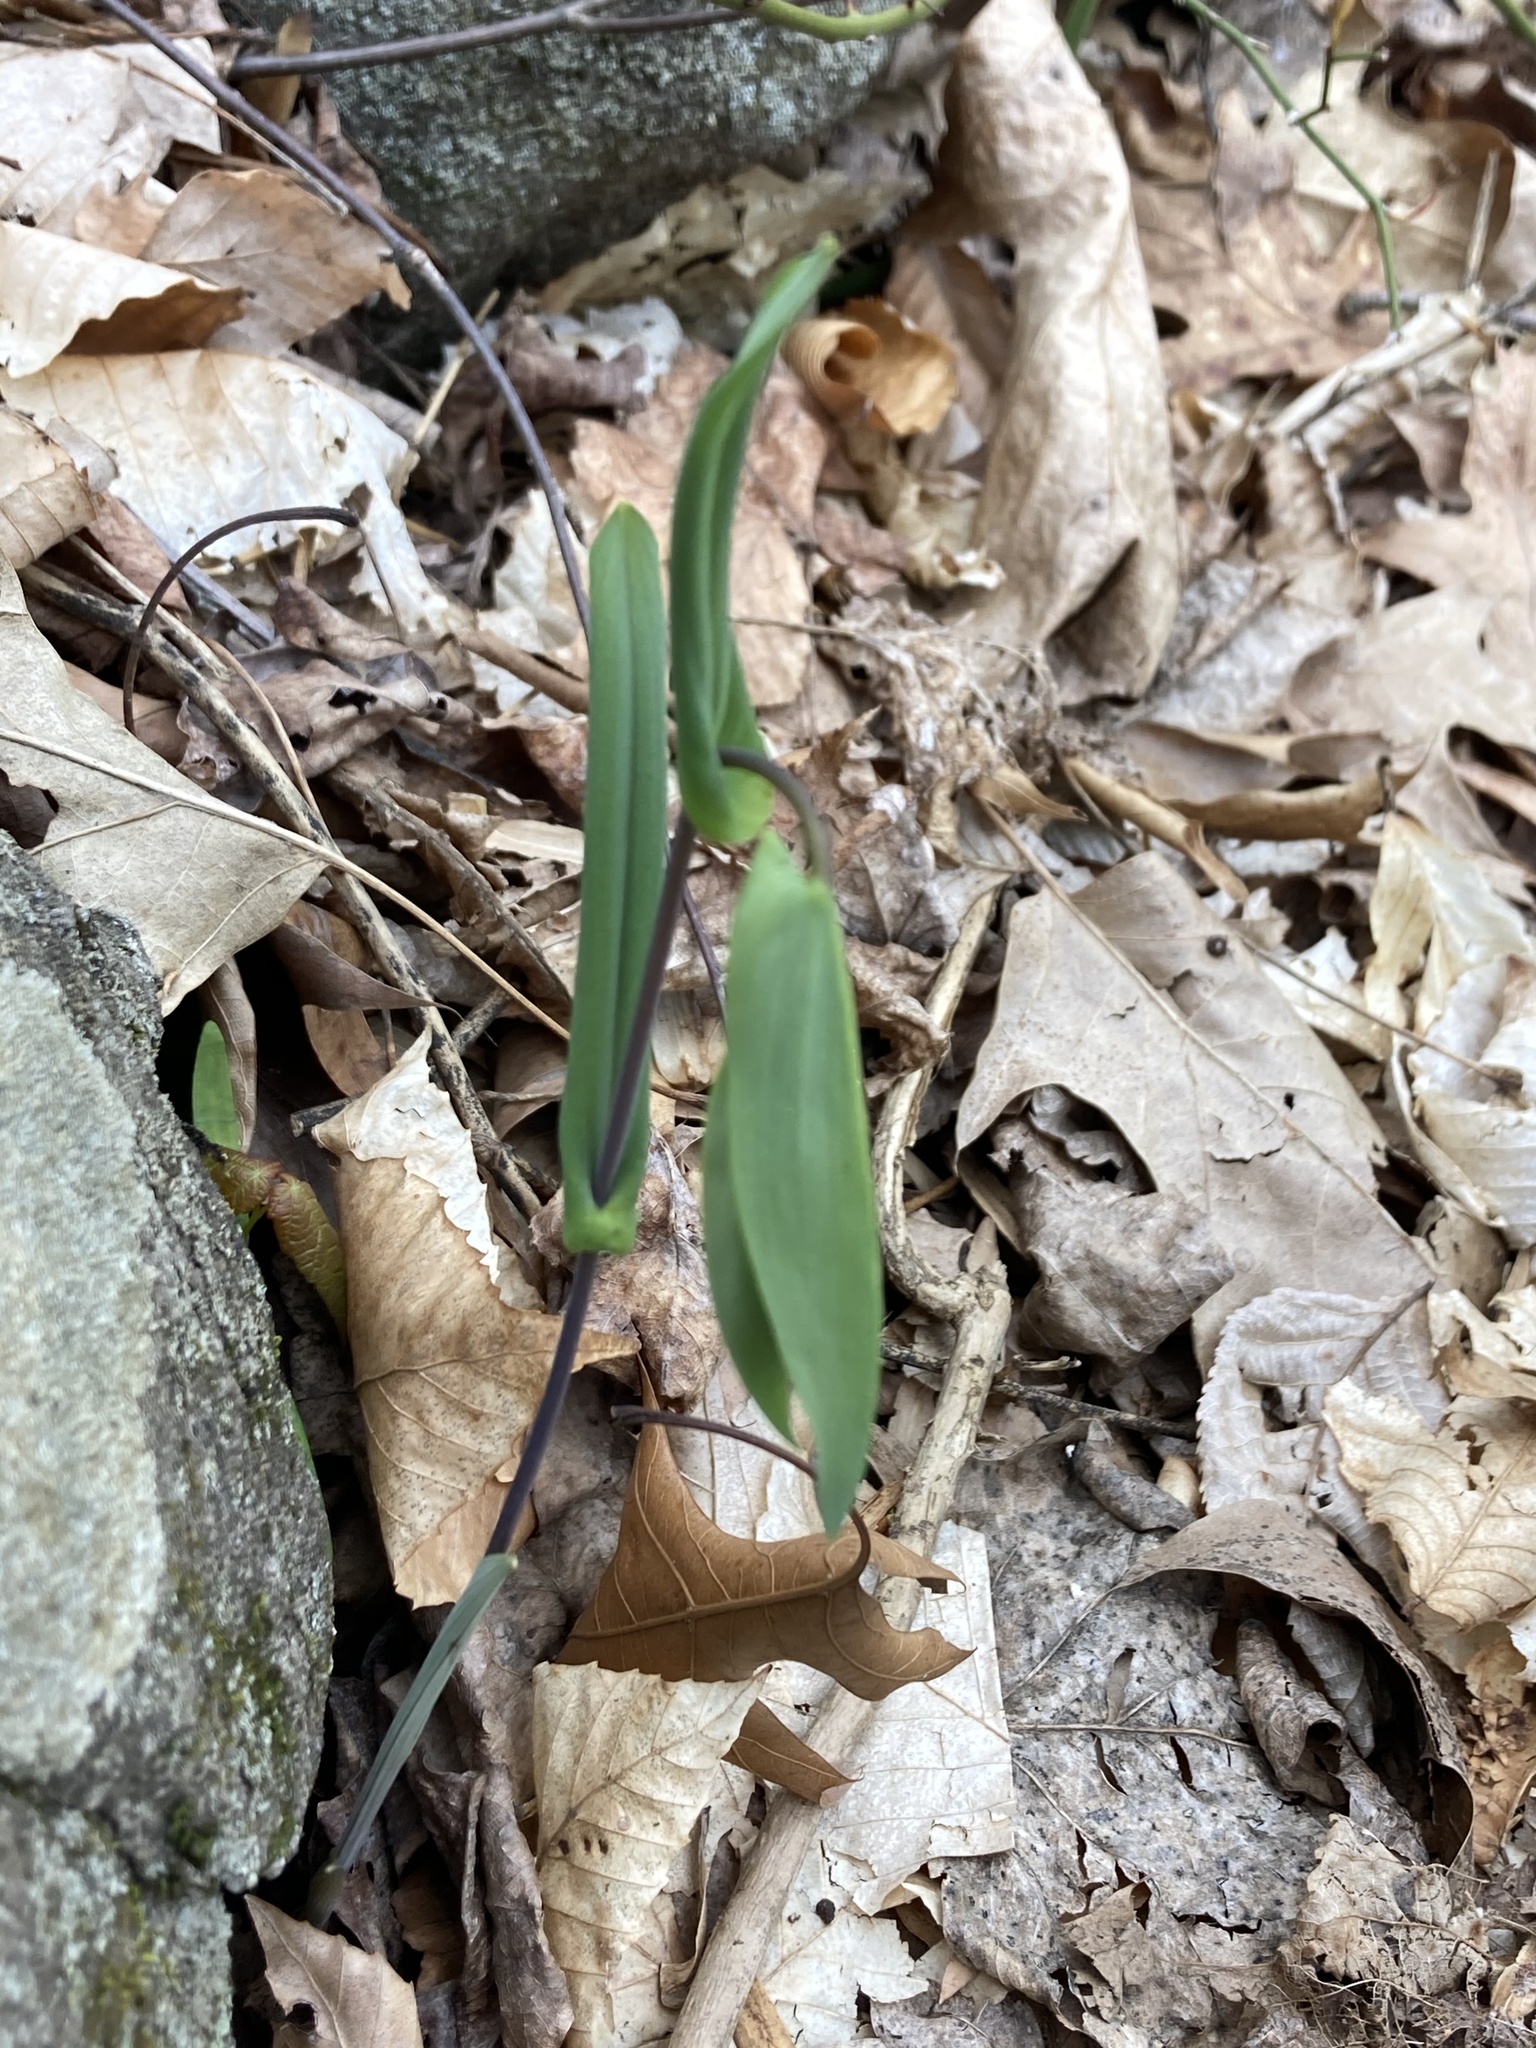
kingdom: Plantae
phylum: Tracheophyta
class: Liliopsida
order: Liliales
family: Colchicaceae
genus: Uvularia
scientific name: Uvularia perfoliata
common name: Perfoliate bellwort
